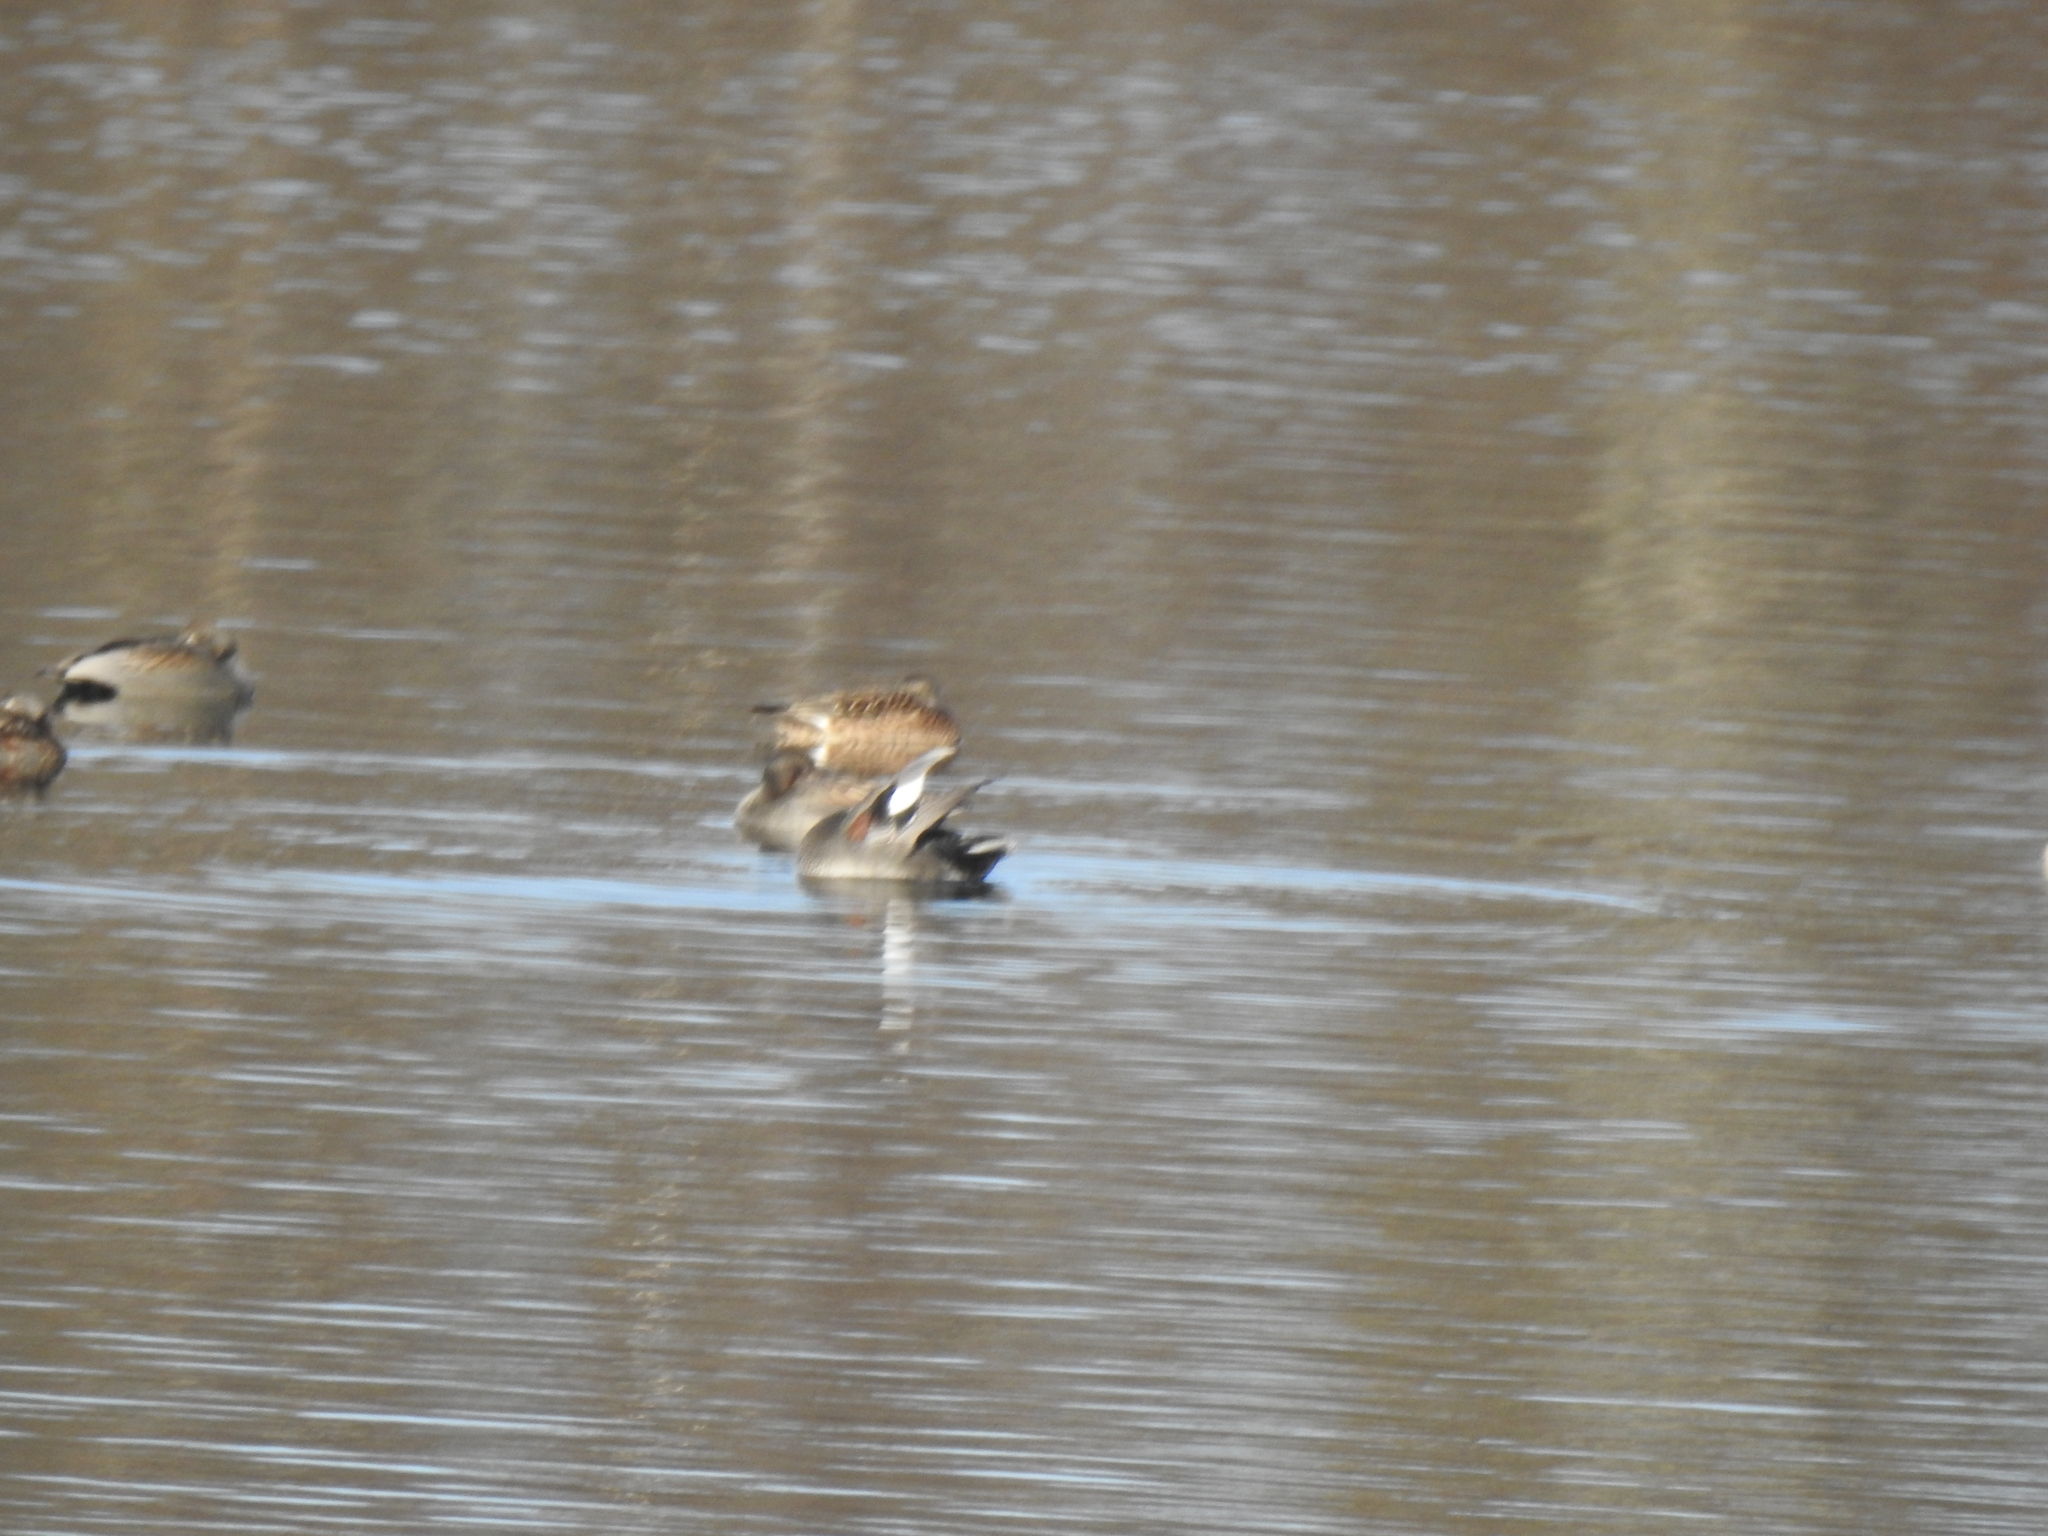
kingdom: Animalia
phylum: Chordata
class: Aves
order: Anseriformes
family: Anatidae
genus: Mareca
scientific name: Mareca strepera
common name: Gadwall
